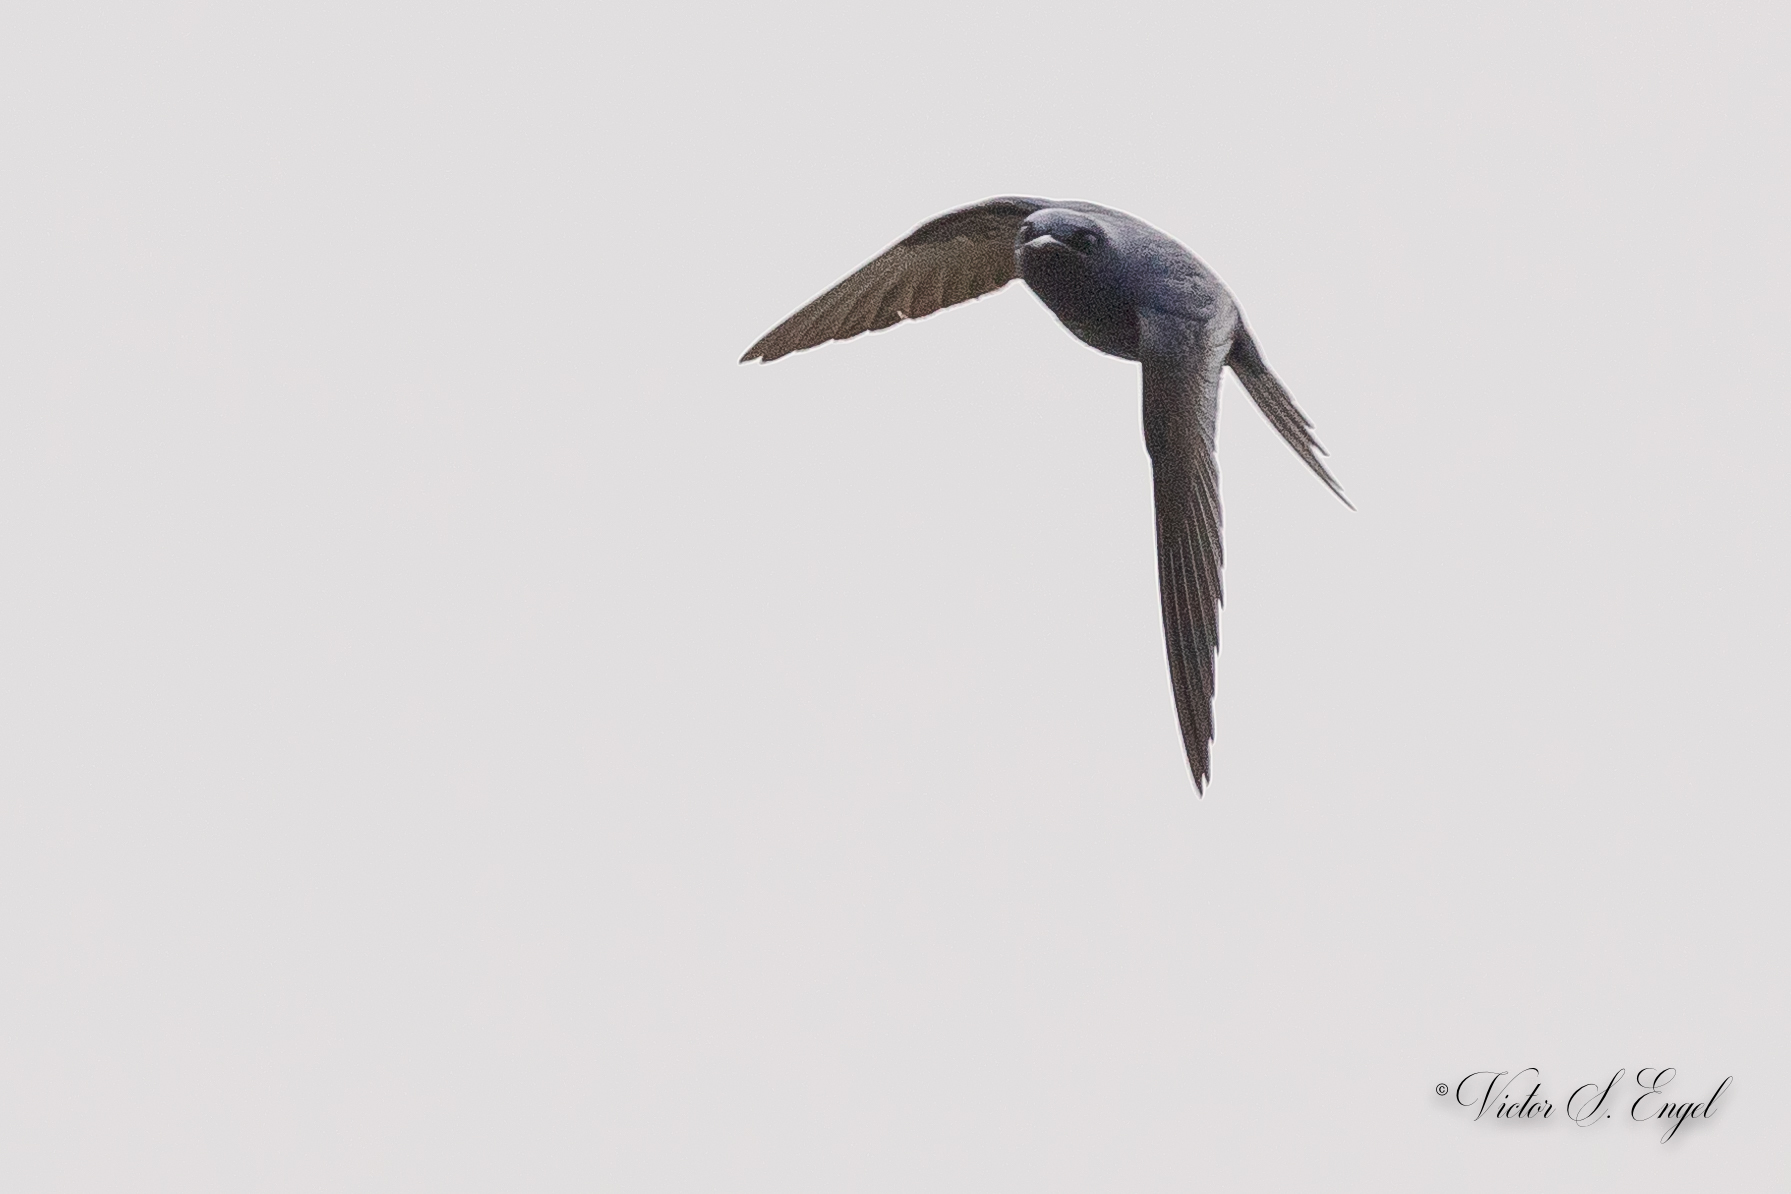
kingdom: Animalia
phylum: Chordata
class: Aves
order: Passeriformes
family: Hirundinidae
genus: Progne
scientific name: Progne subis
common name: Purple martin
